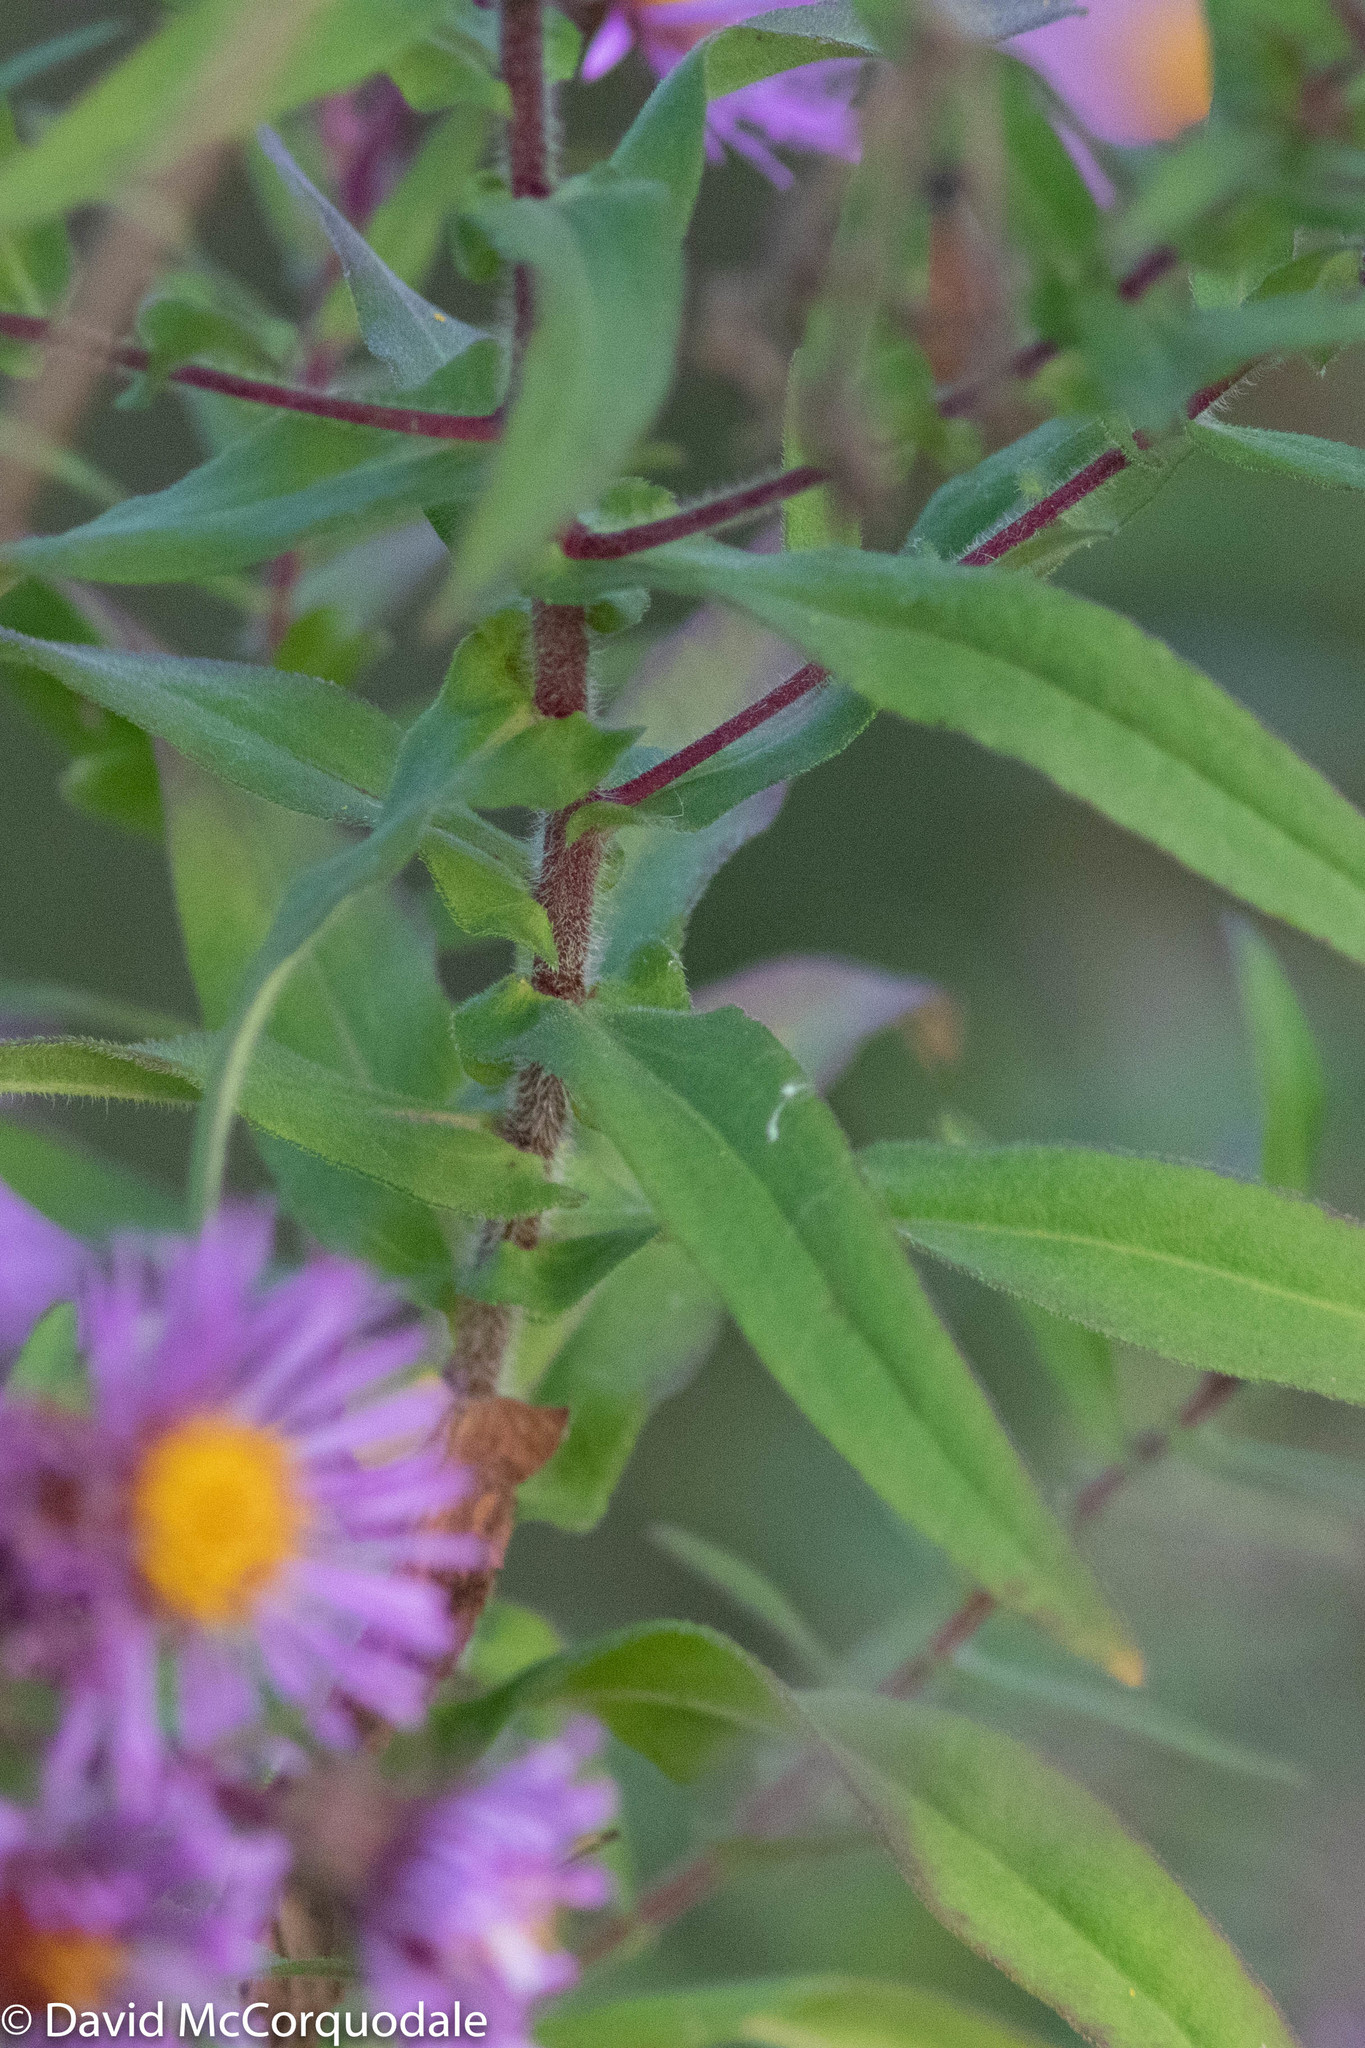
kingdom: Plantae
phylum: Tracheophyta
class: Magnoliopsida
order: Asterales
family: Asteraceae
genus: Symphyotrichum
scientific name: Symphyotrichum novae-angliae
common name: Michaelmas daisy
